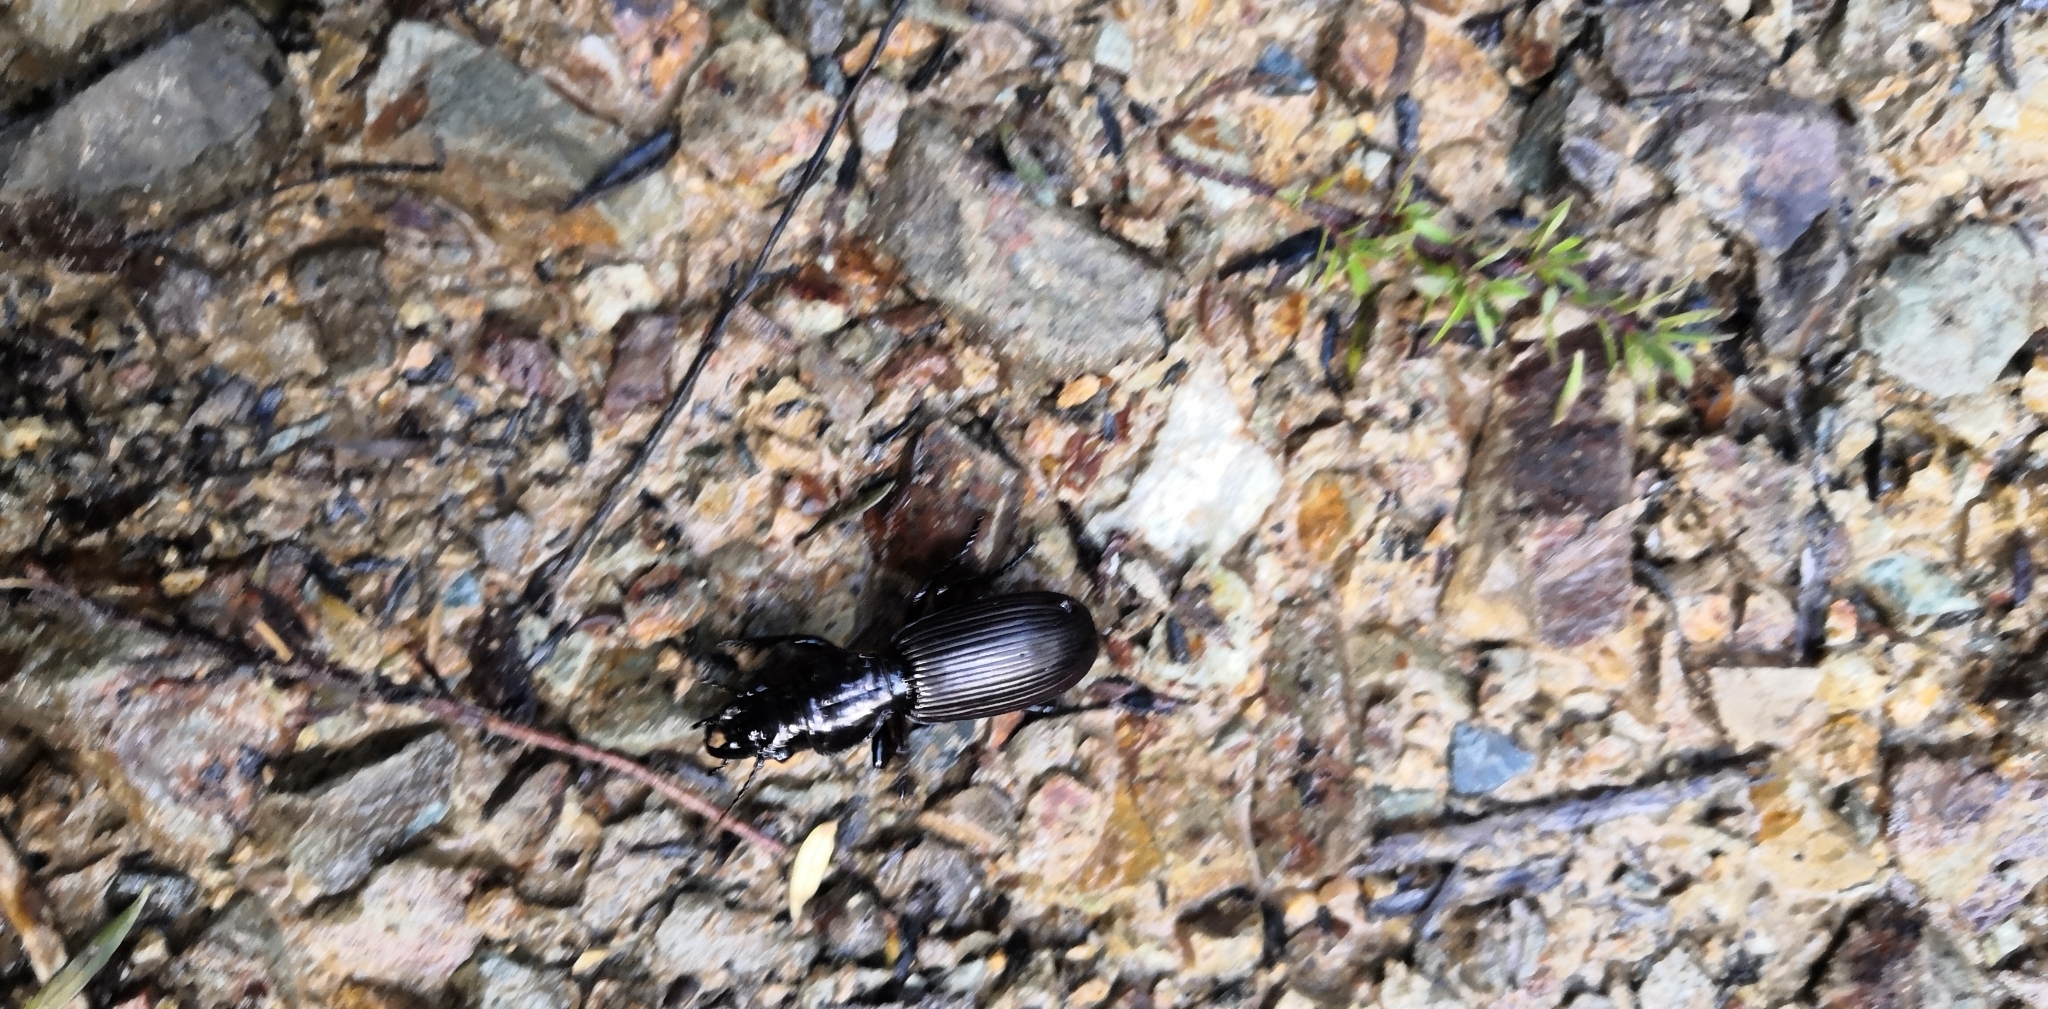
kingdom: Animalia
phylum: Arthropoda
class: Insecta
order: Coleoptera
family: Carabidae
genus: Mecodema
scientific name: Mecodema spiniferum
